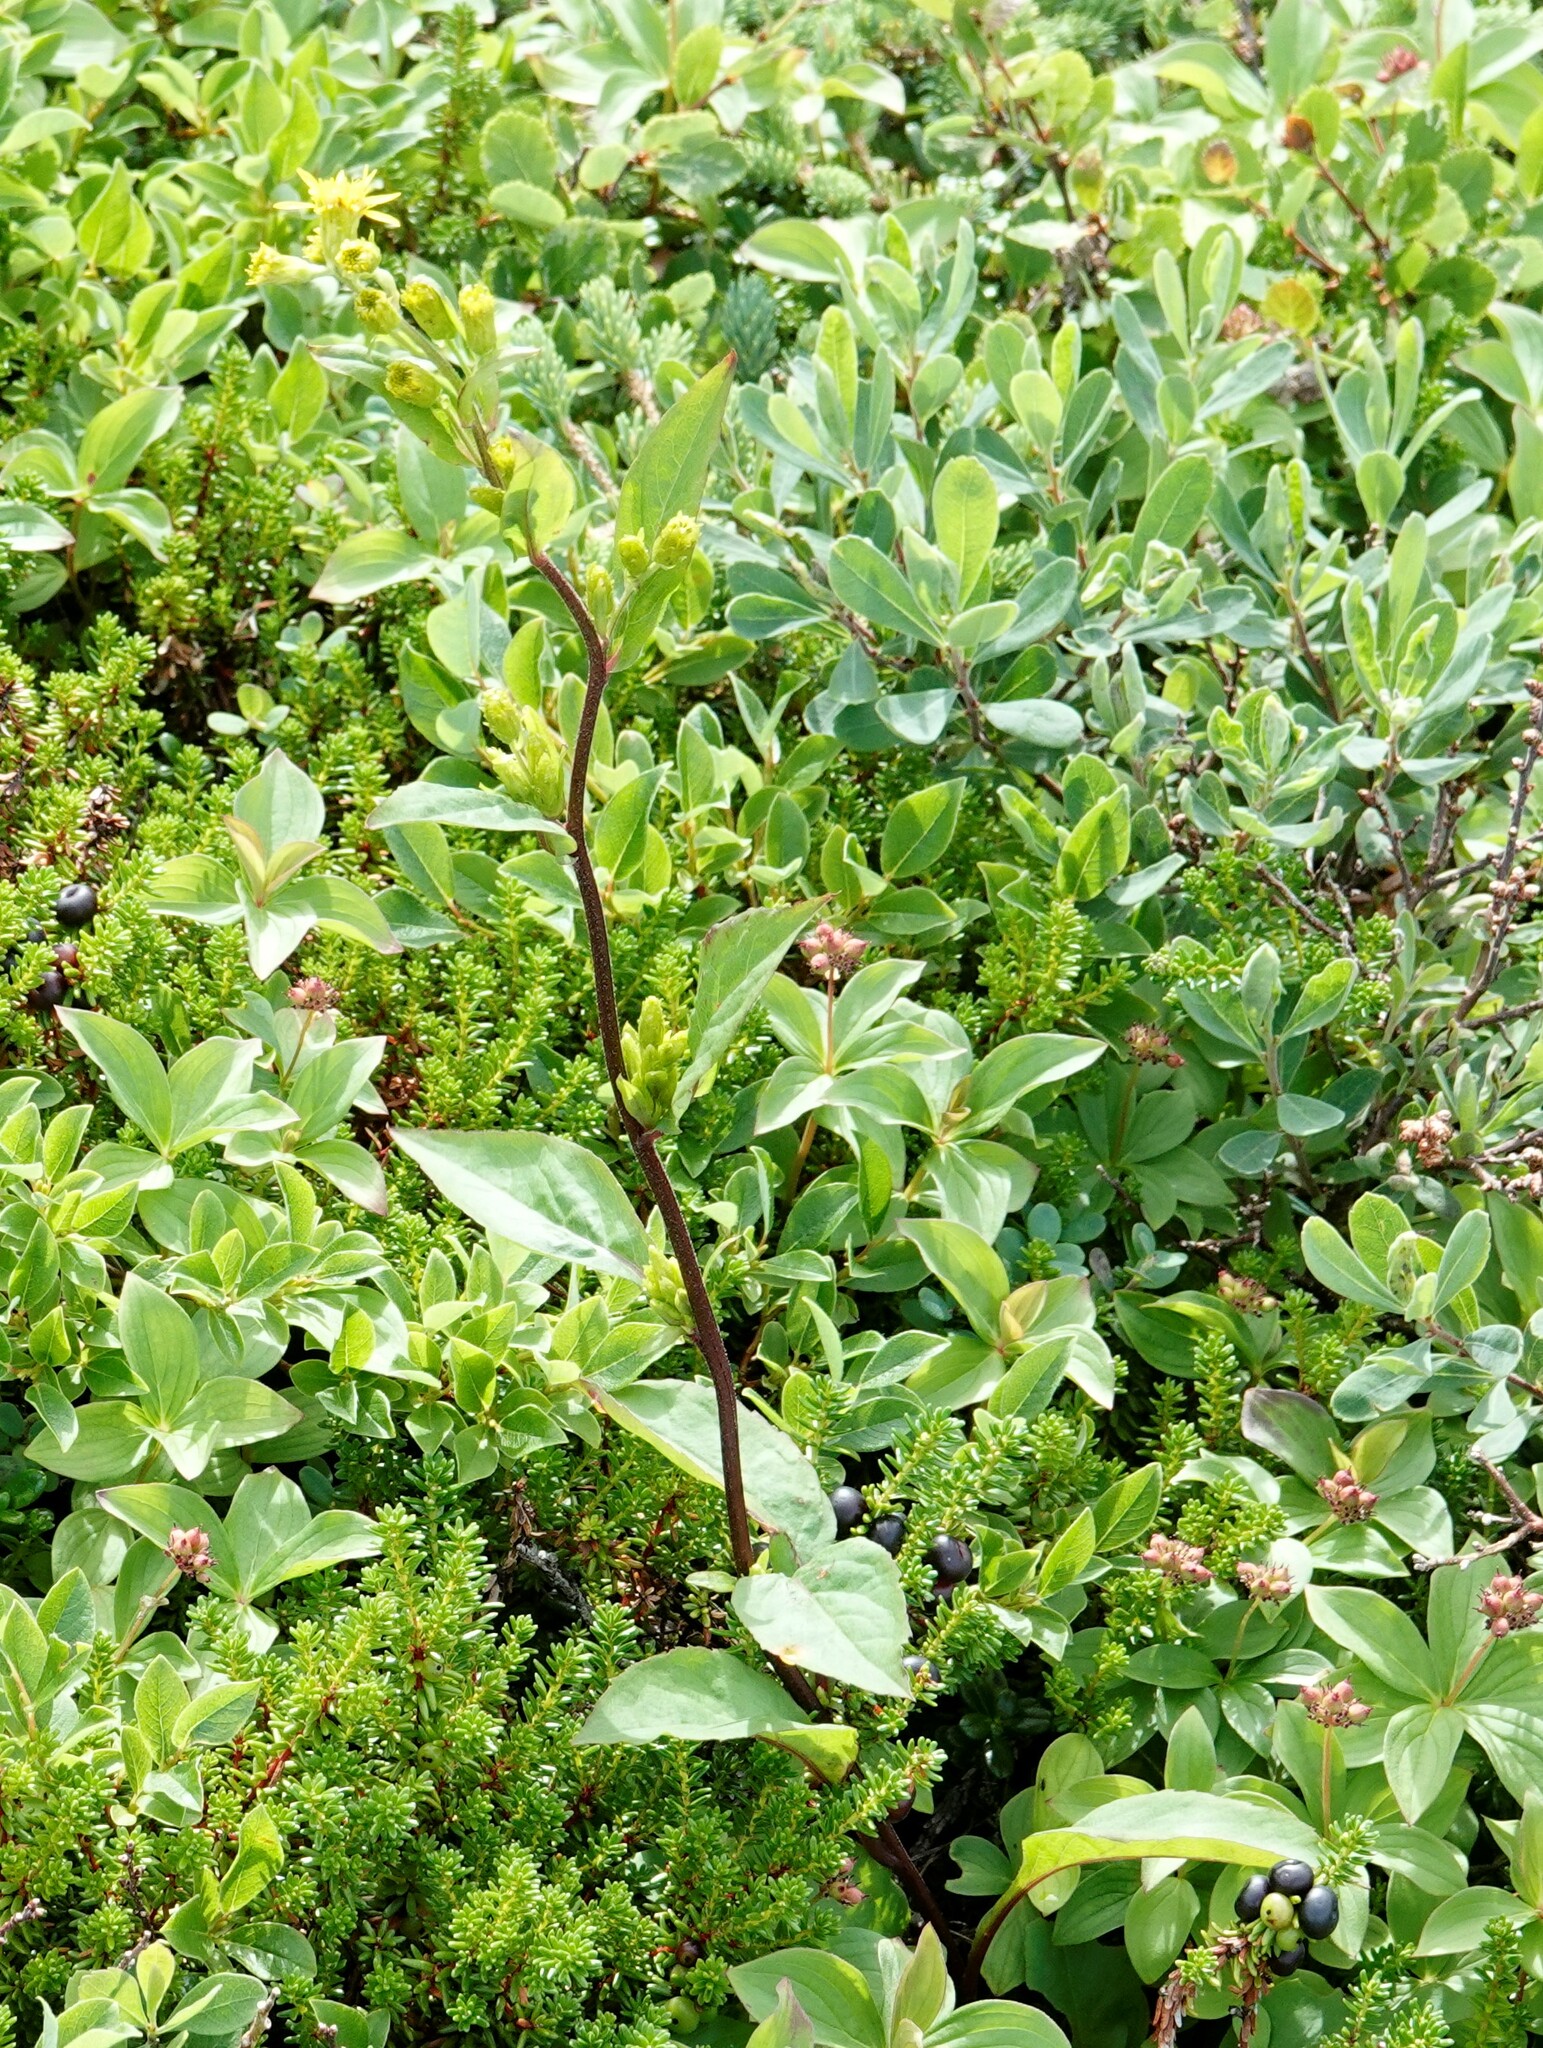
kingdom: Plantae
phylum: Tracheophyta
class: Magnoliopsida
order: Asterales
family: Asteraceae
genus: Solidago
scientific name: Solidago macrophylla
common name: Large-leaved goldenrod
